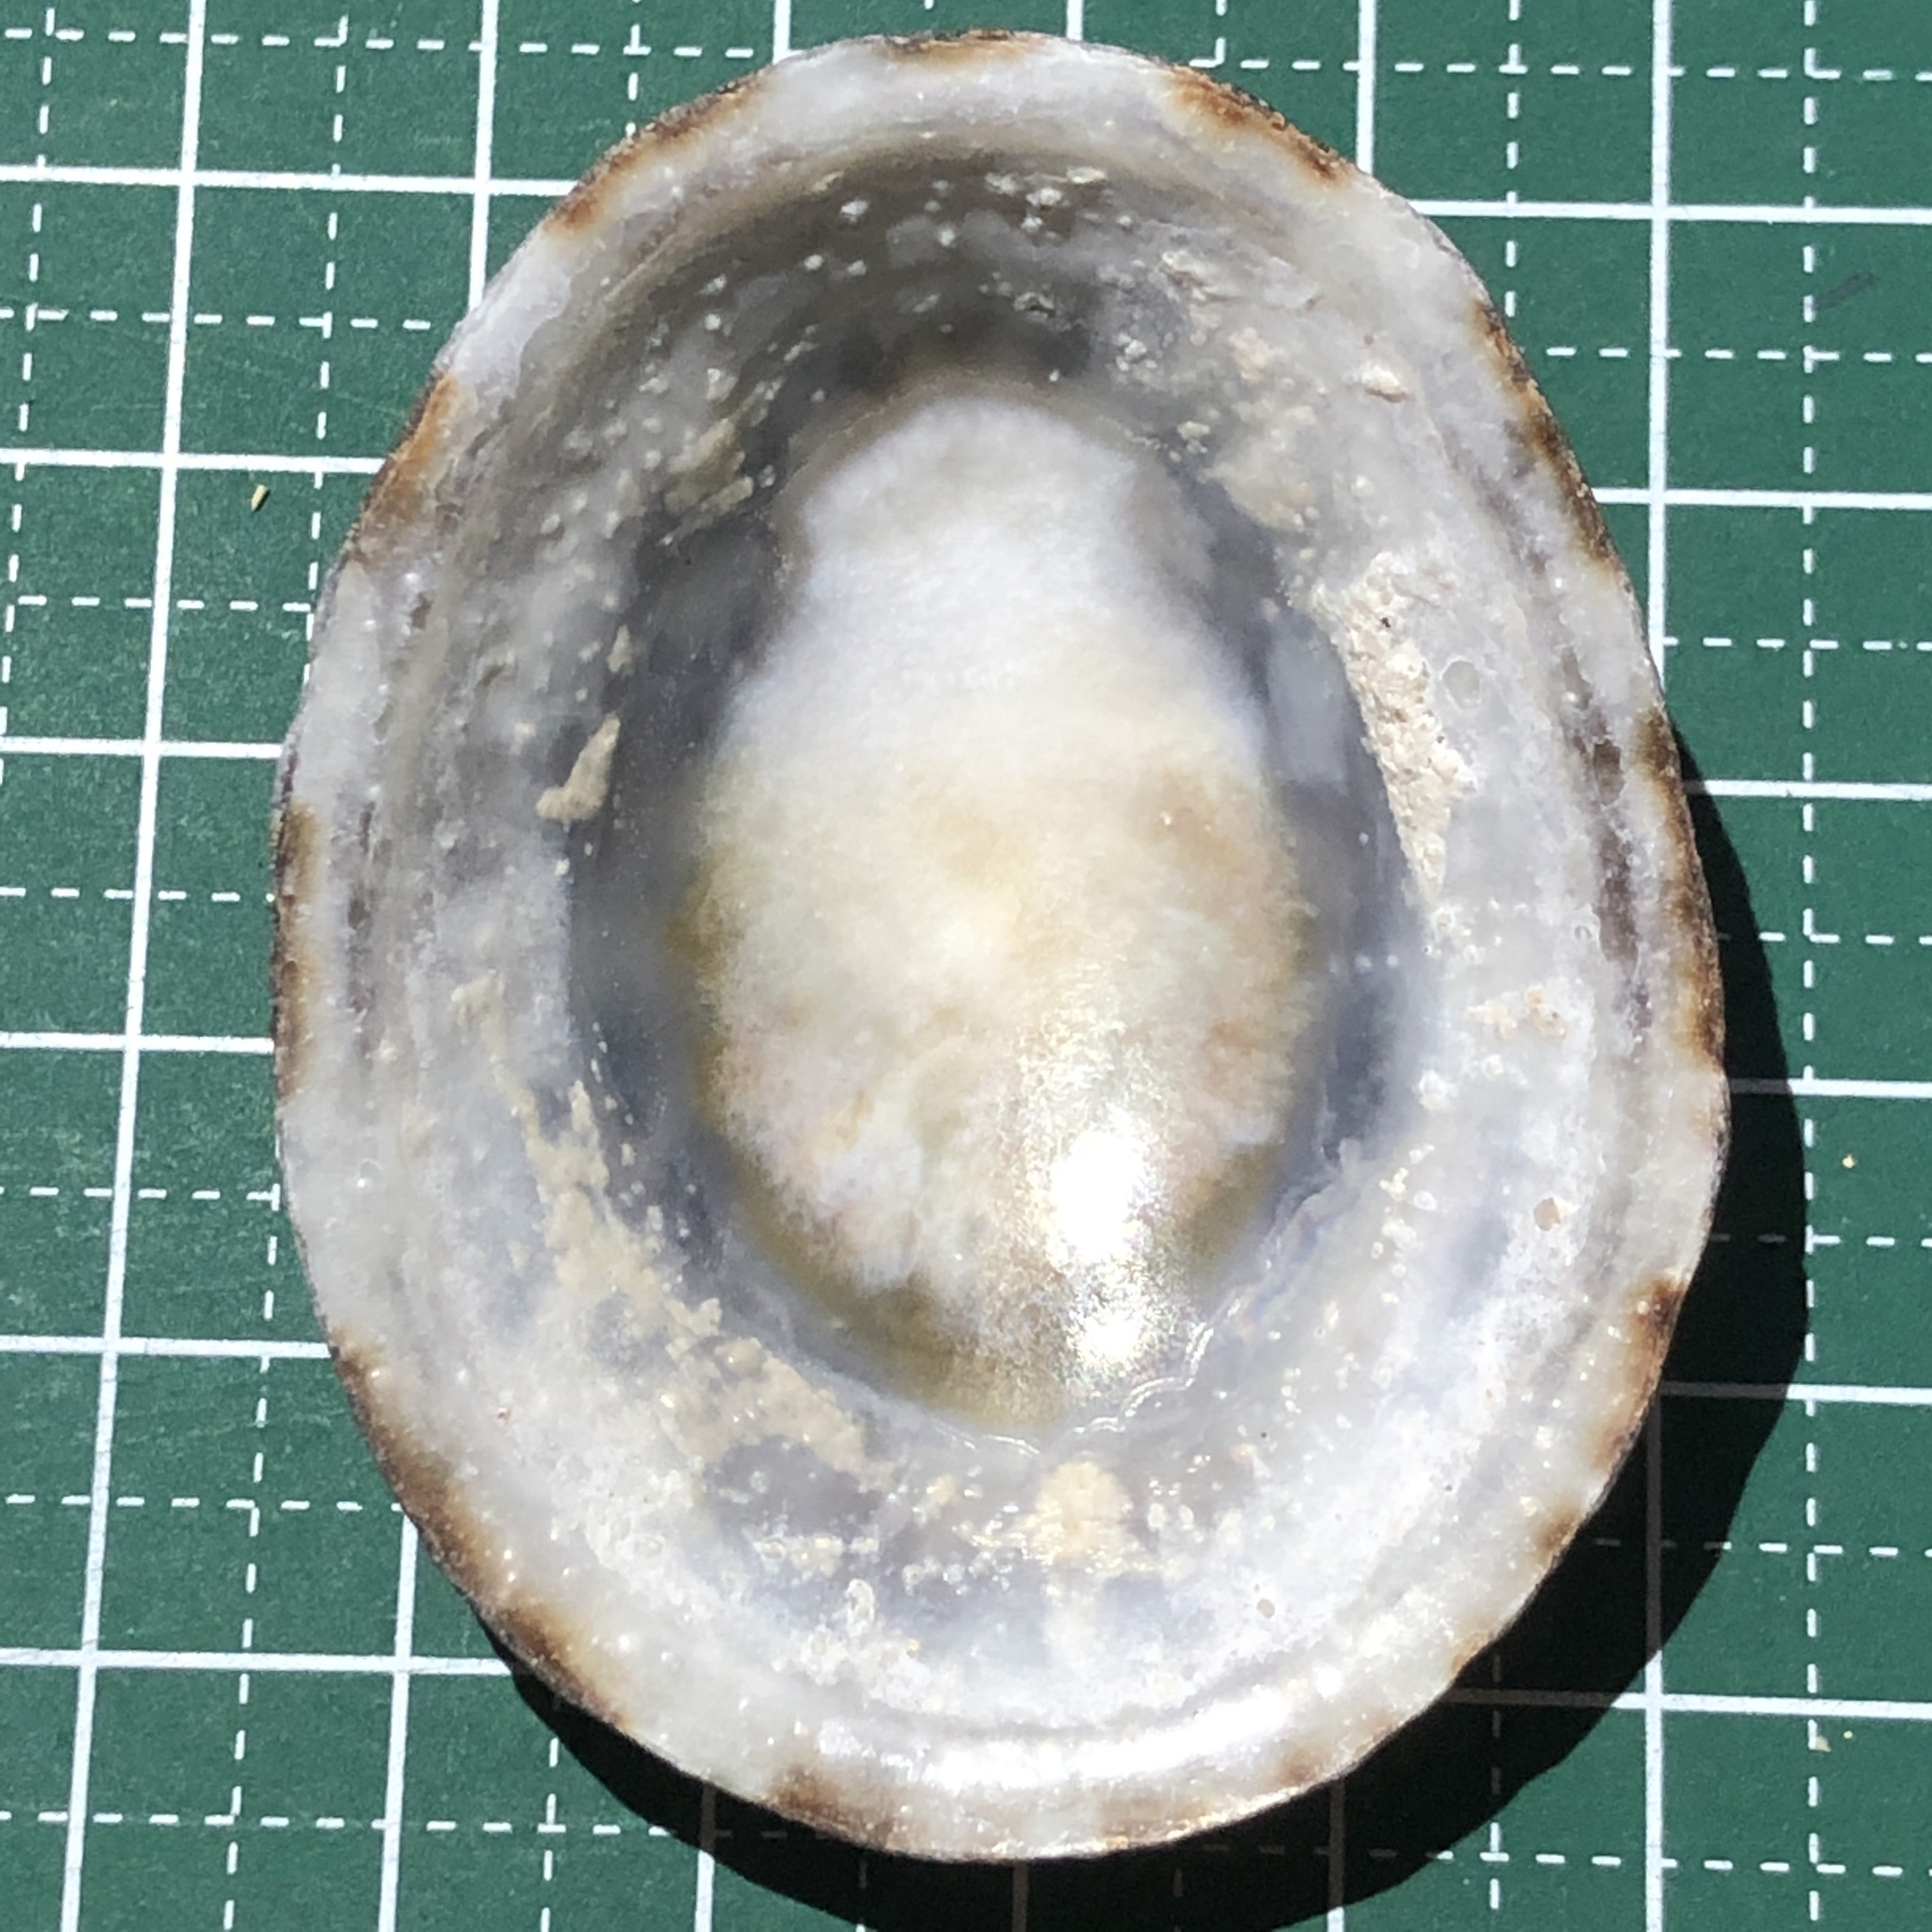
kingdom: Animalia
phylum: Mollusca
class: Gastropoda
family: Nacellidae
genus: Cellana
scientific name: Cellana testudinaria
